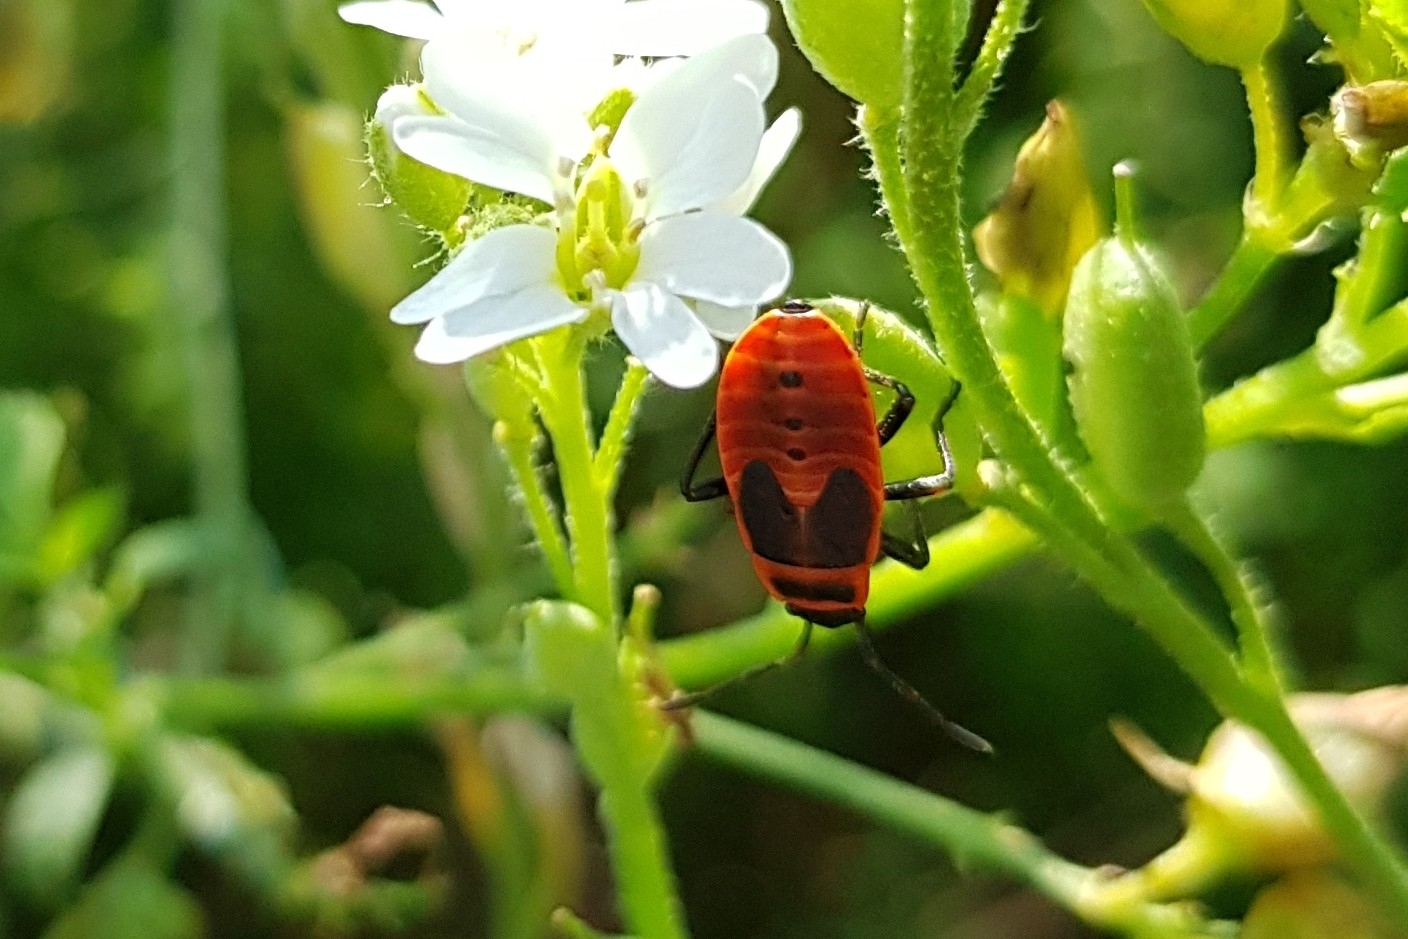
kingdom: Animalia
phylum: Arthropoda
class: Insecta
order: Hemiptera
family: Pyrrhocoridae
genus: Pyrrhocoris
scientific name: Pyrrhocoris apterus
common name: Firebug
